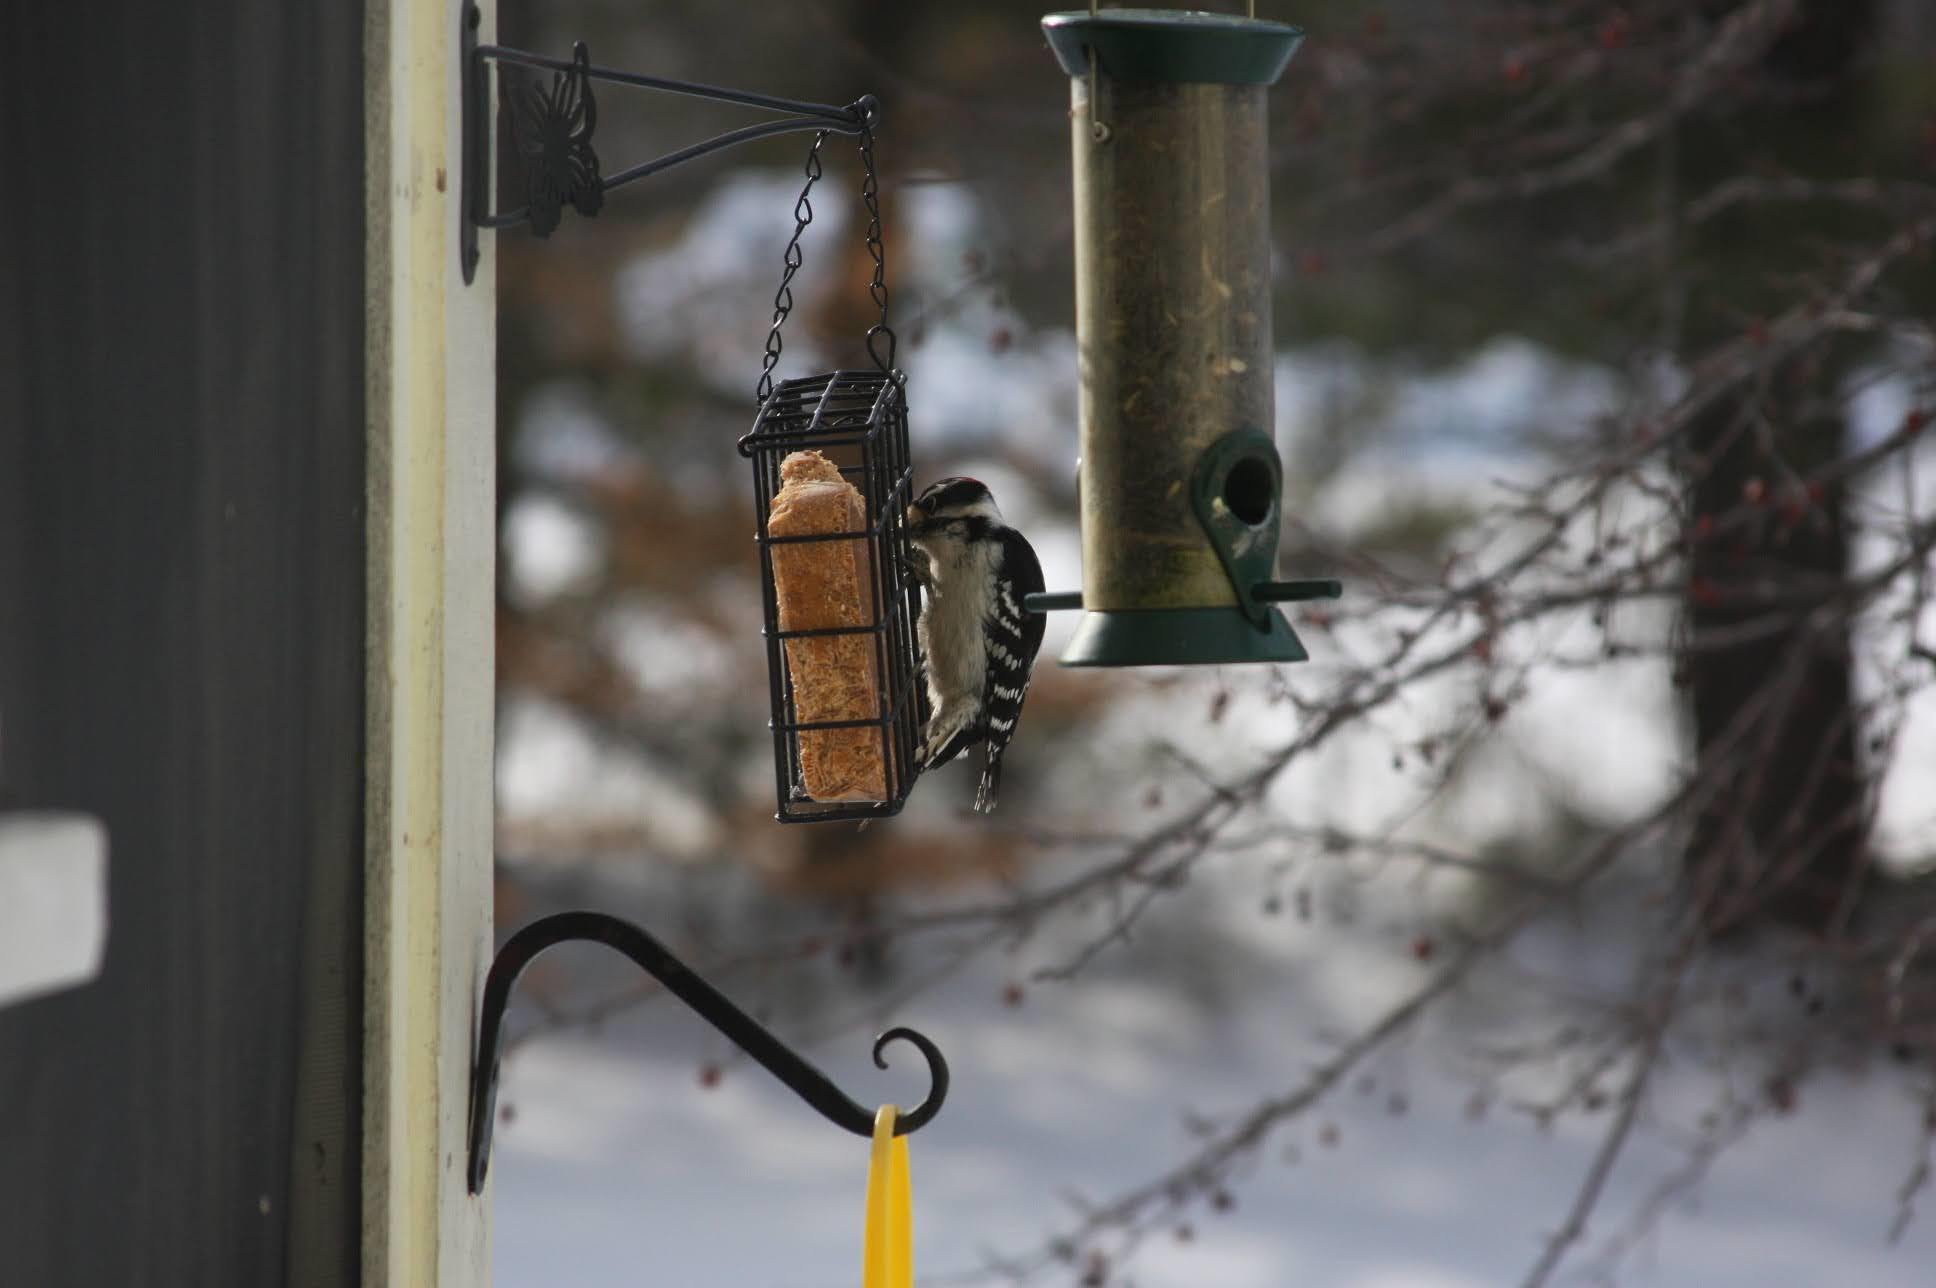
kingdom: Animalia
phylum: Chordata
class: Aves
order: Piciformes
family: Picidae
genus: Dryobates
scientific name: Dryobates pubescens
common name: Downy woodpecker
